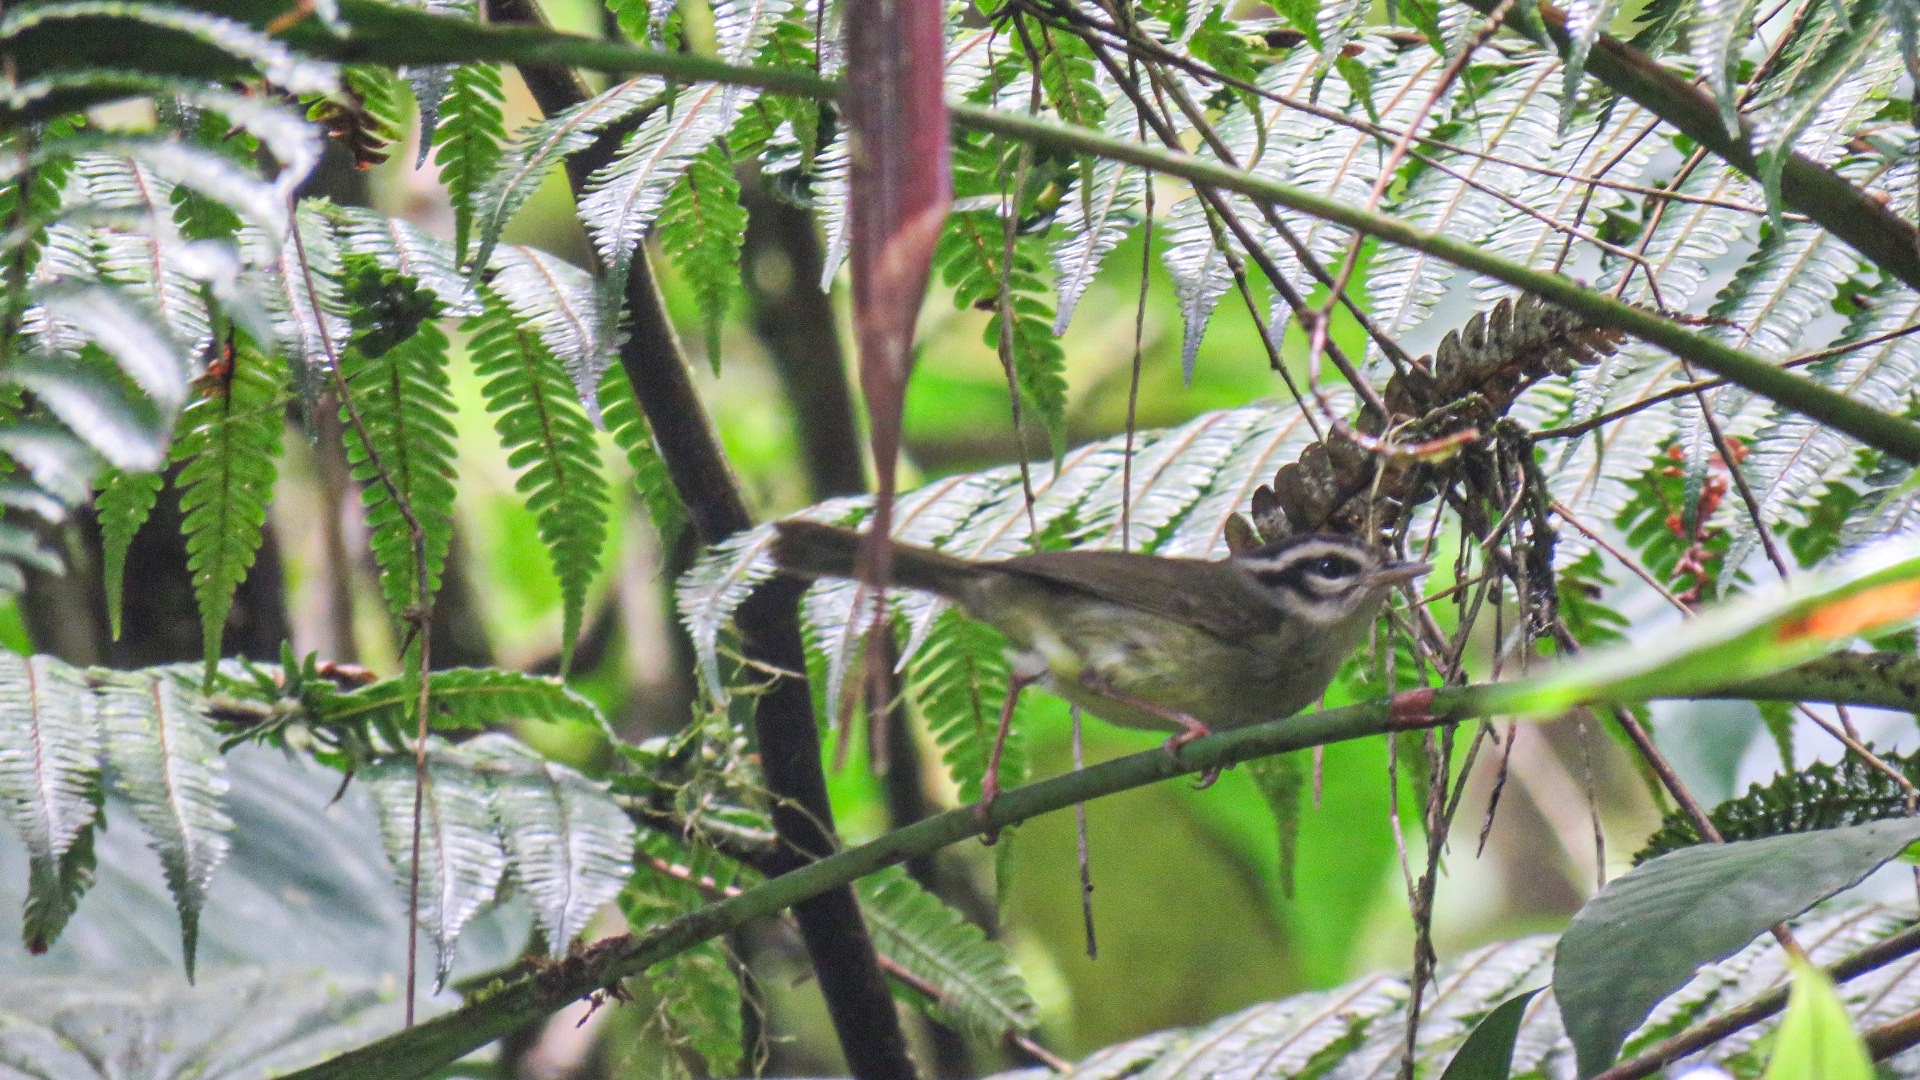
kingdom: Animalia
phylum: Chordata
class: Aves
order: Passeriformes
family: Parulidae
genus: Basileuterus
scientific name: Basileuterus melanotis
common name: Black-eared warbler
